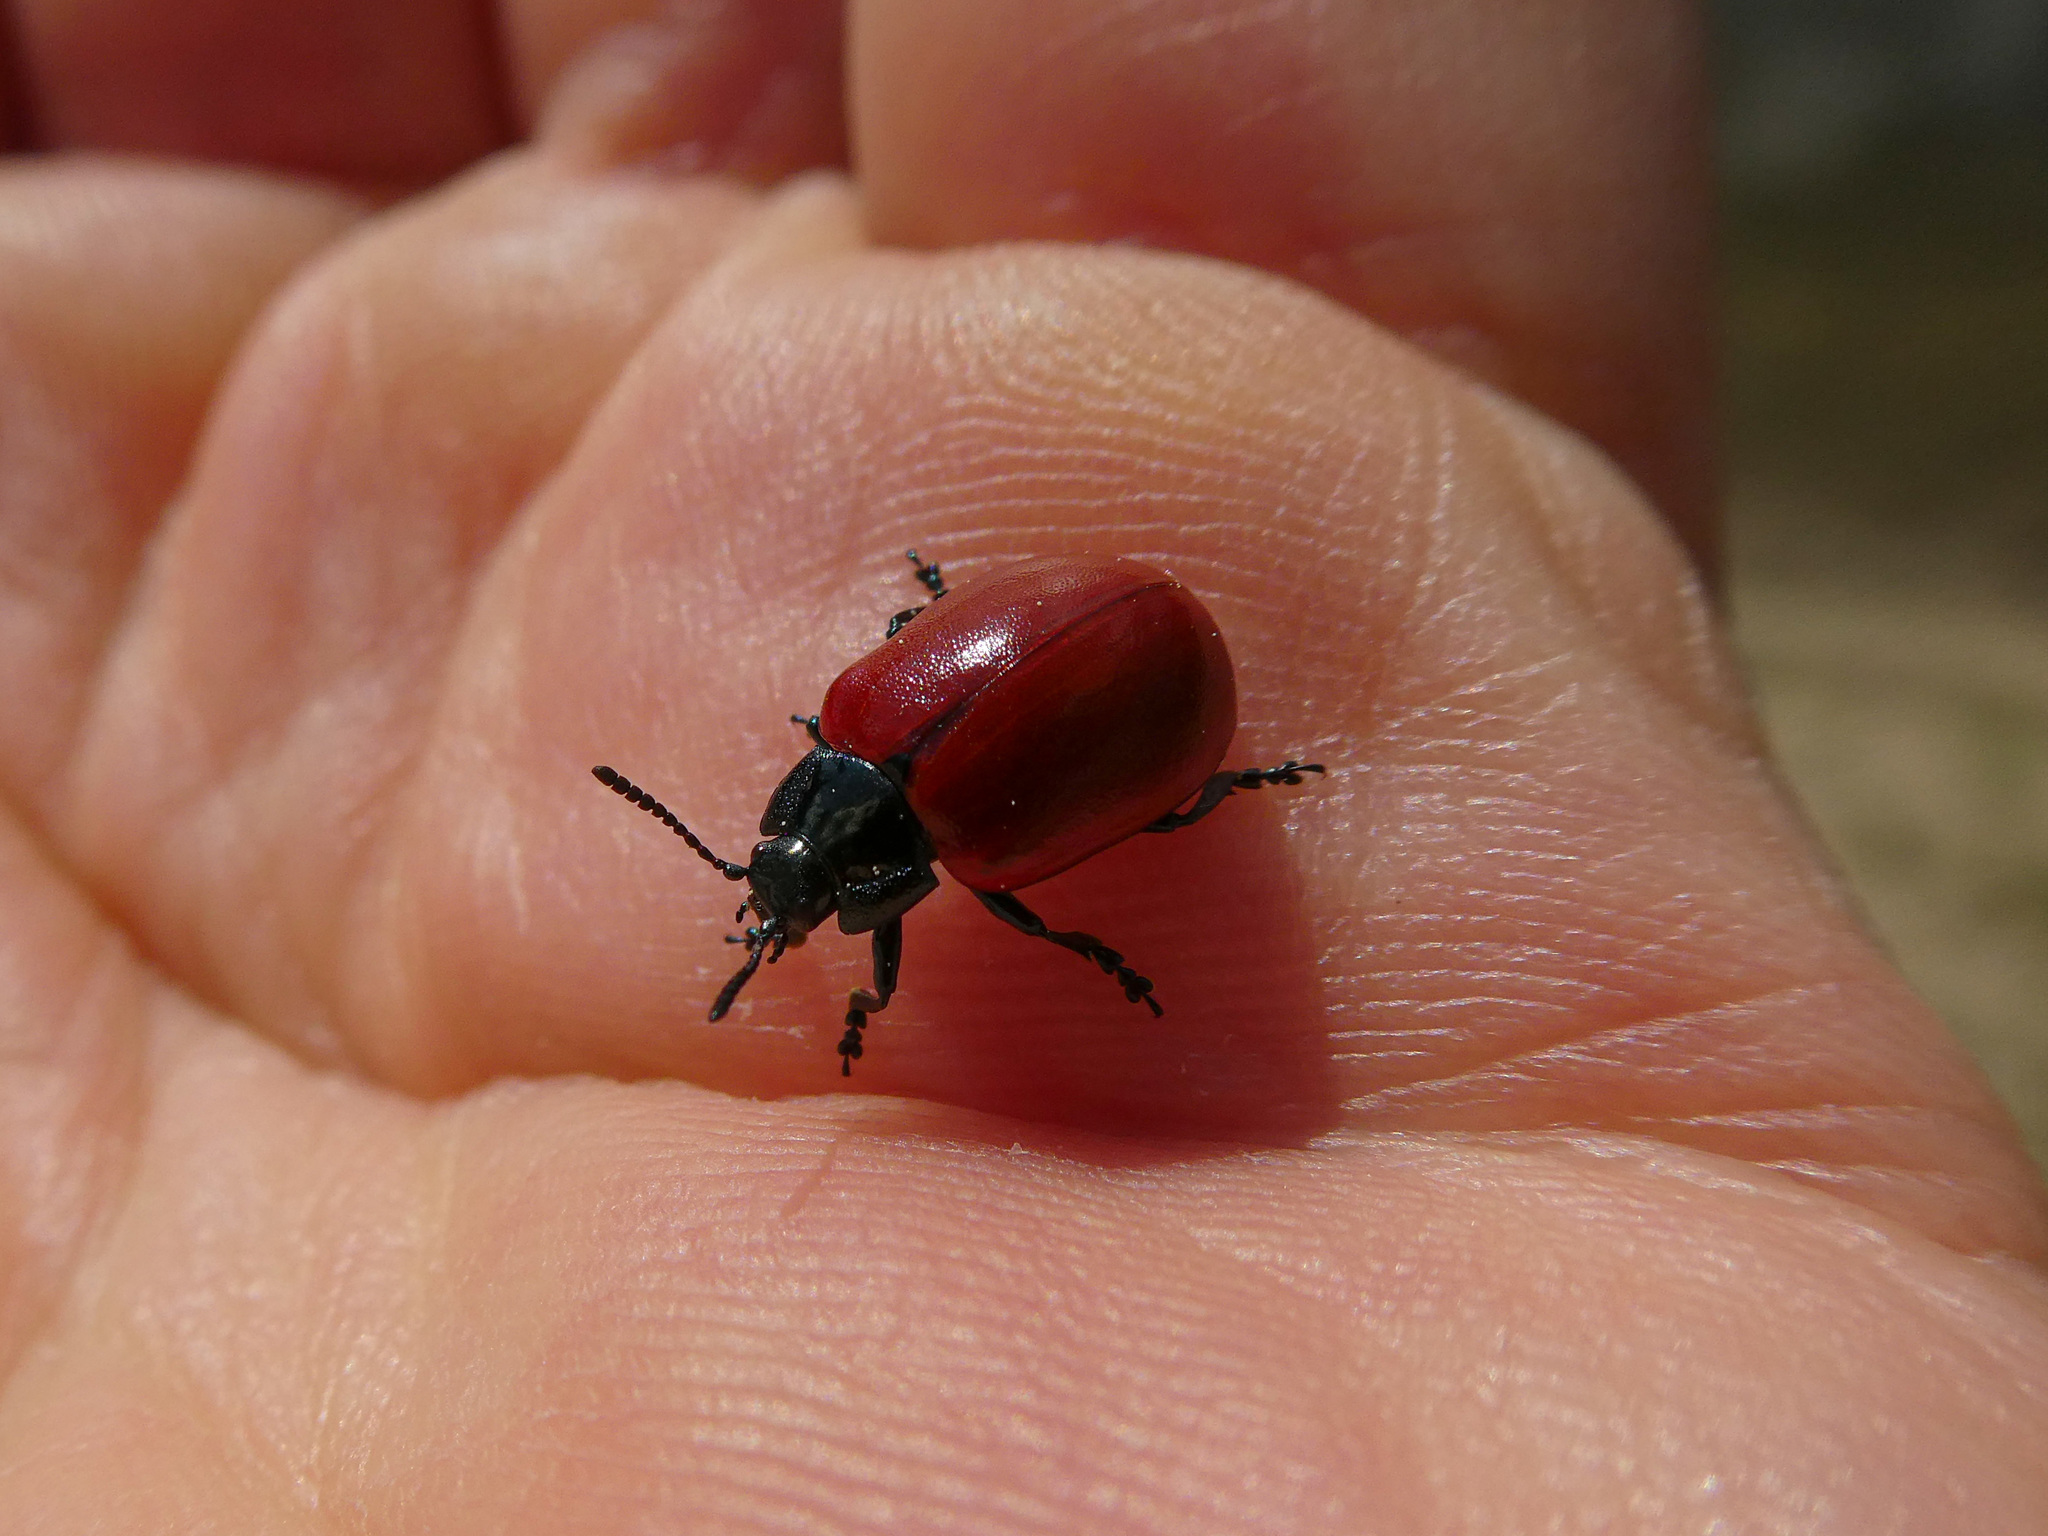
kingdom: Animalia
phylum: Arthropoda
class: Insecta
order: Coleoptera
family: Chrysomelidae
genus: Chrysomela
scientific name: Chrysomela populi
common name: Red poplar leaf beetle
